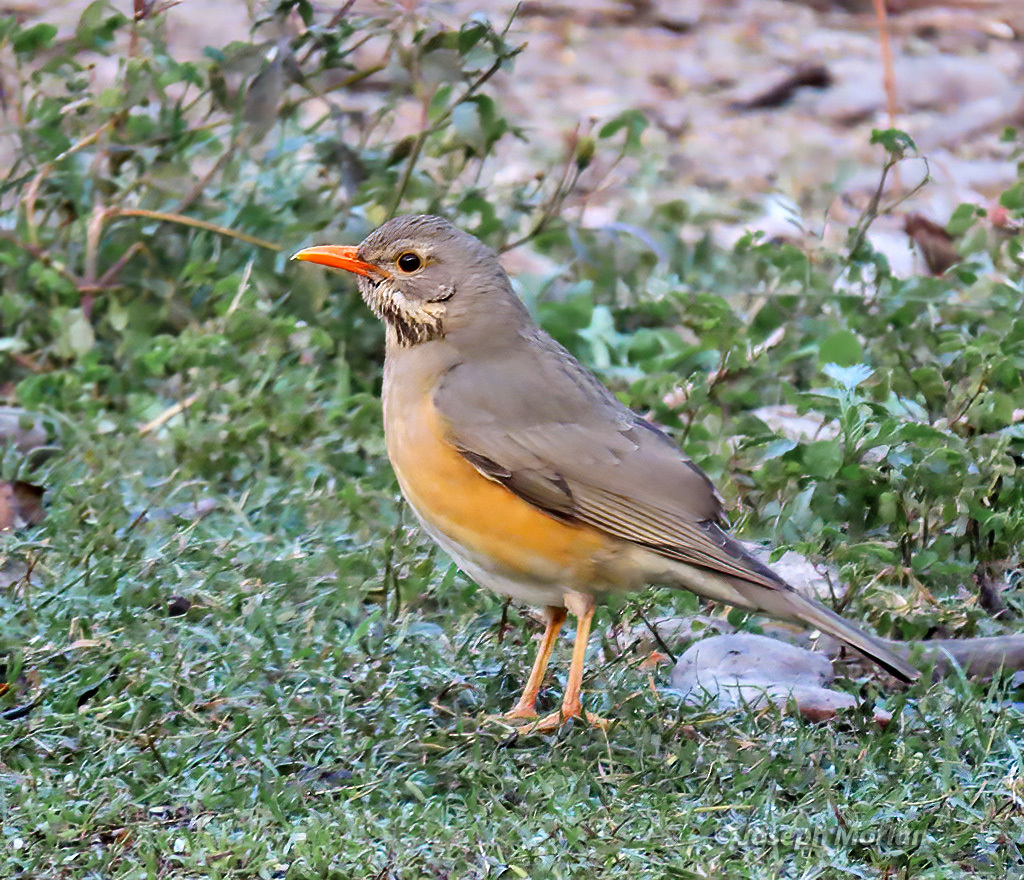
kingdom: Animalia
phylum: Chordata
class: Aves
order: Passeriformes
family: Turdidae
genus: Turdus
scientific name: Turdus libonyana
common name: Kurrichane thrush
